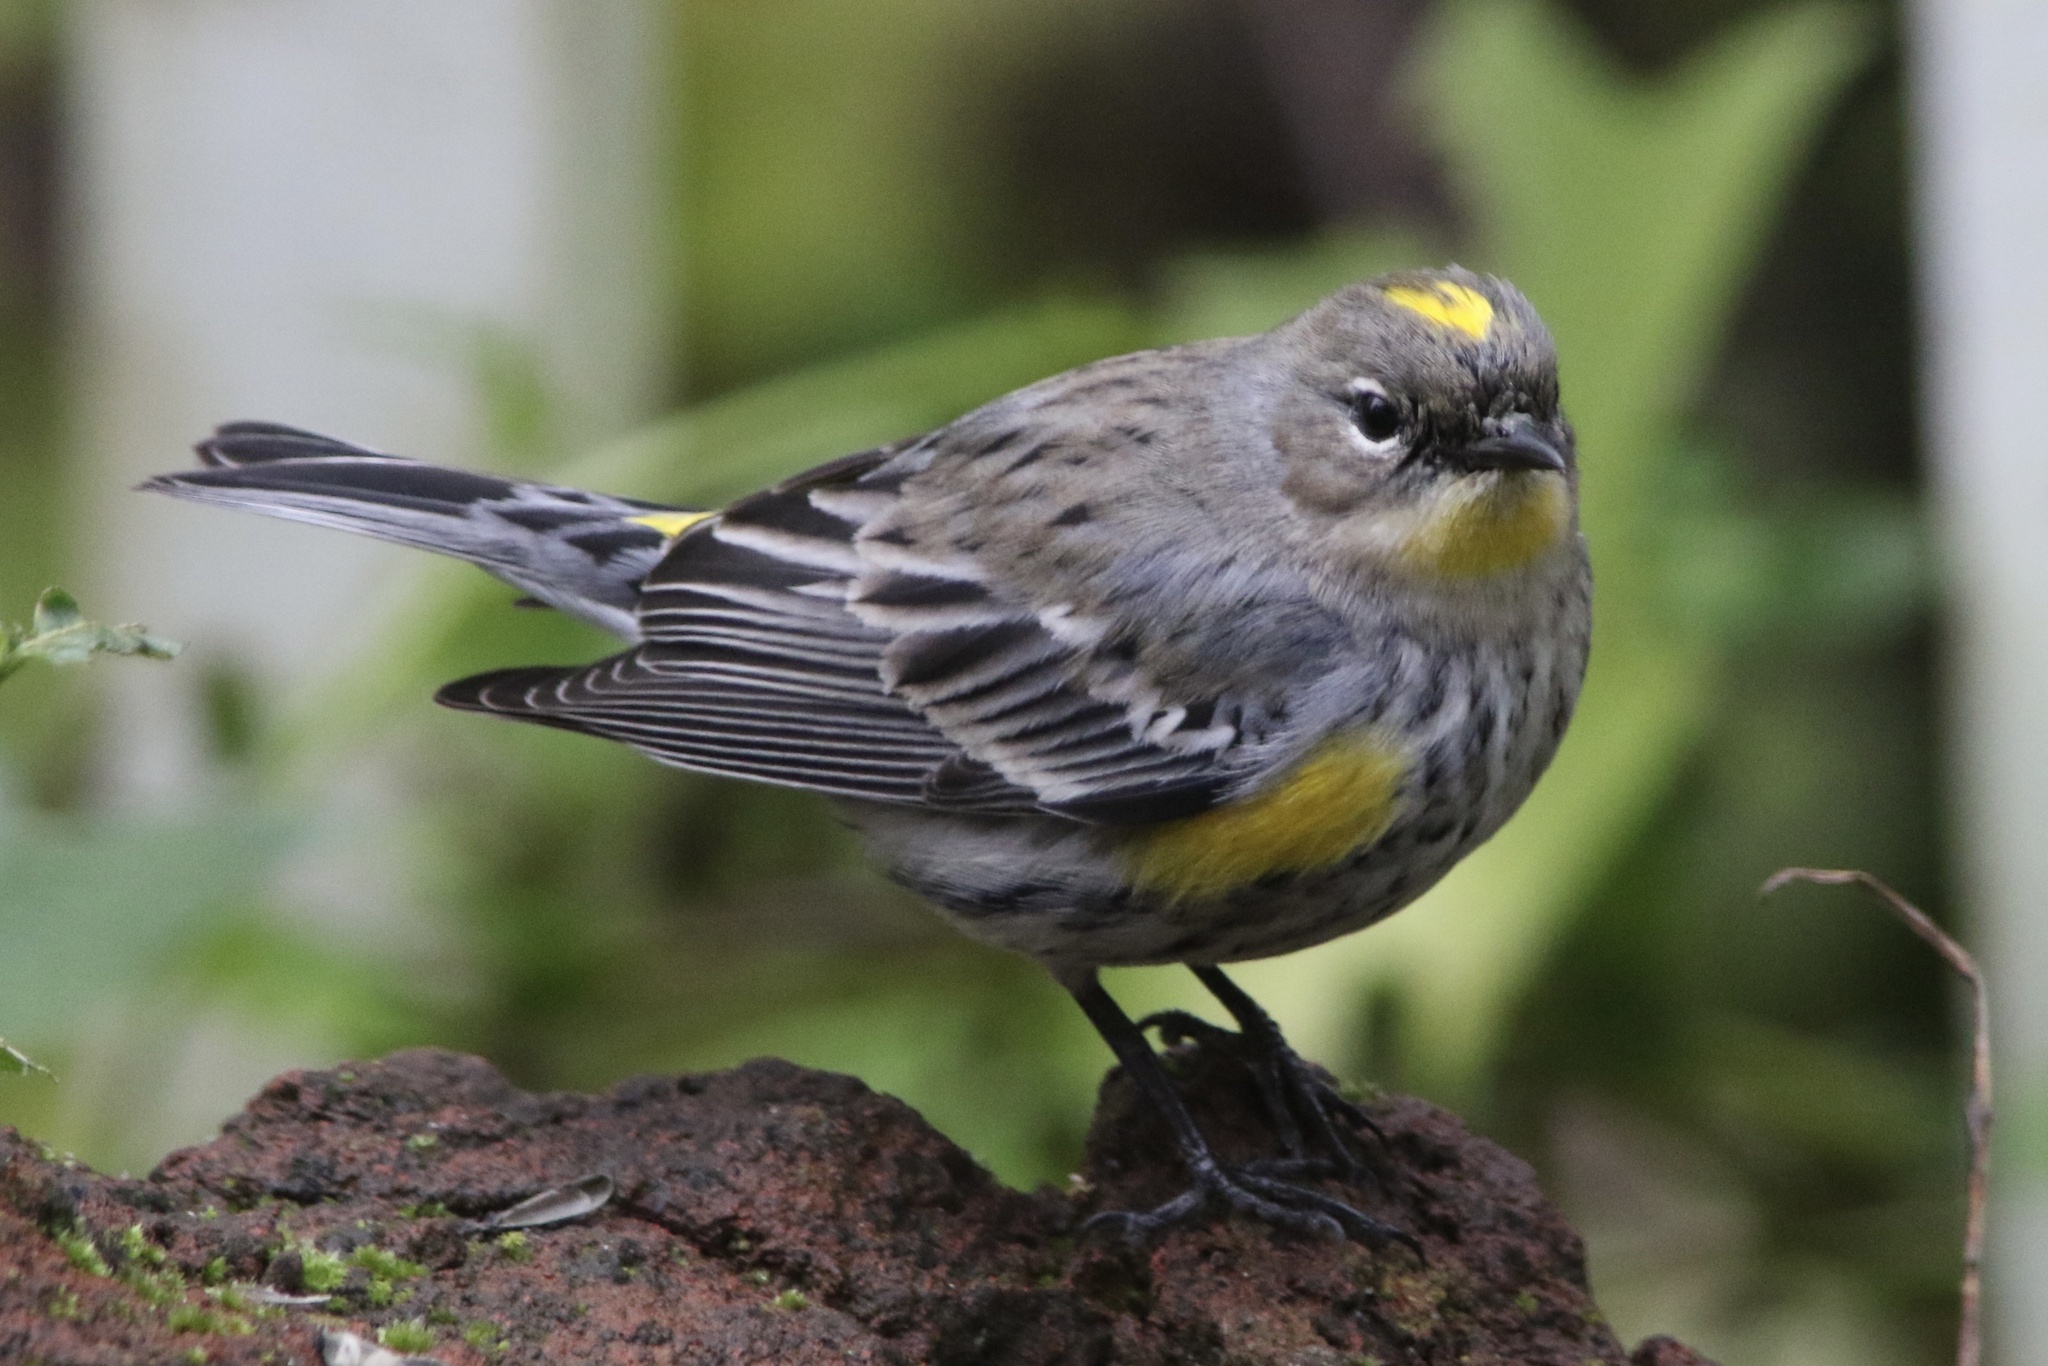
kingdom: Animalia
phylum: Chordata
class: Aves
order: Passeriformes
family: Parulidae
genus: Setophaga
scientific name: Setophaga coronata
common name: Myrtle warbler
